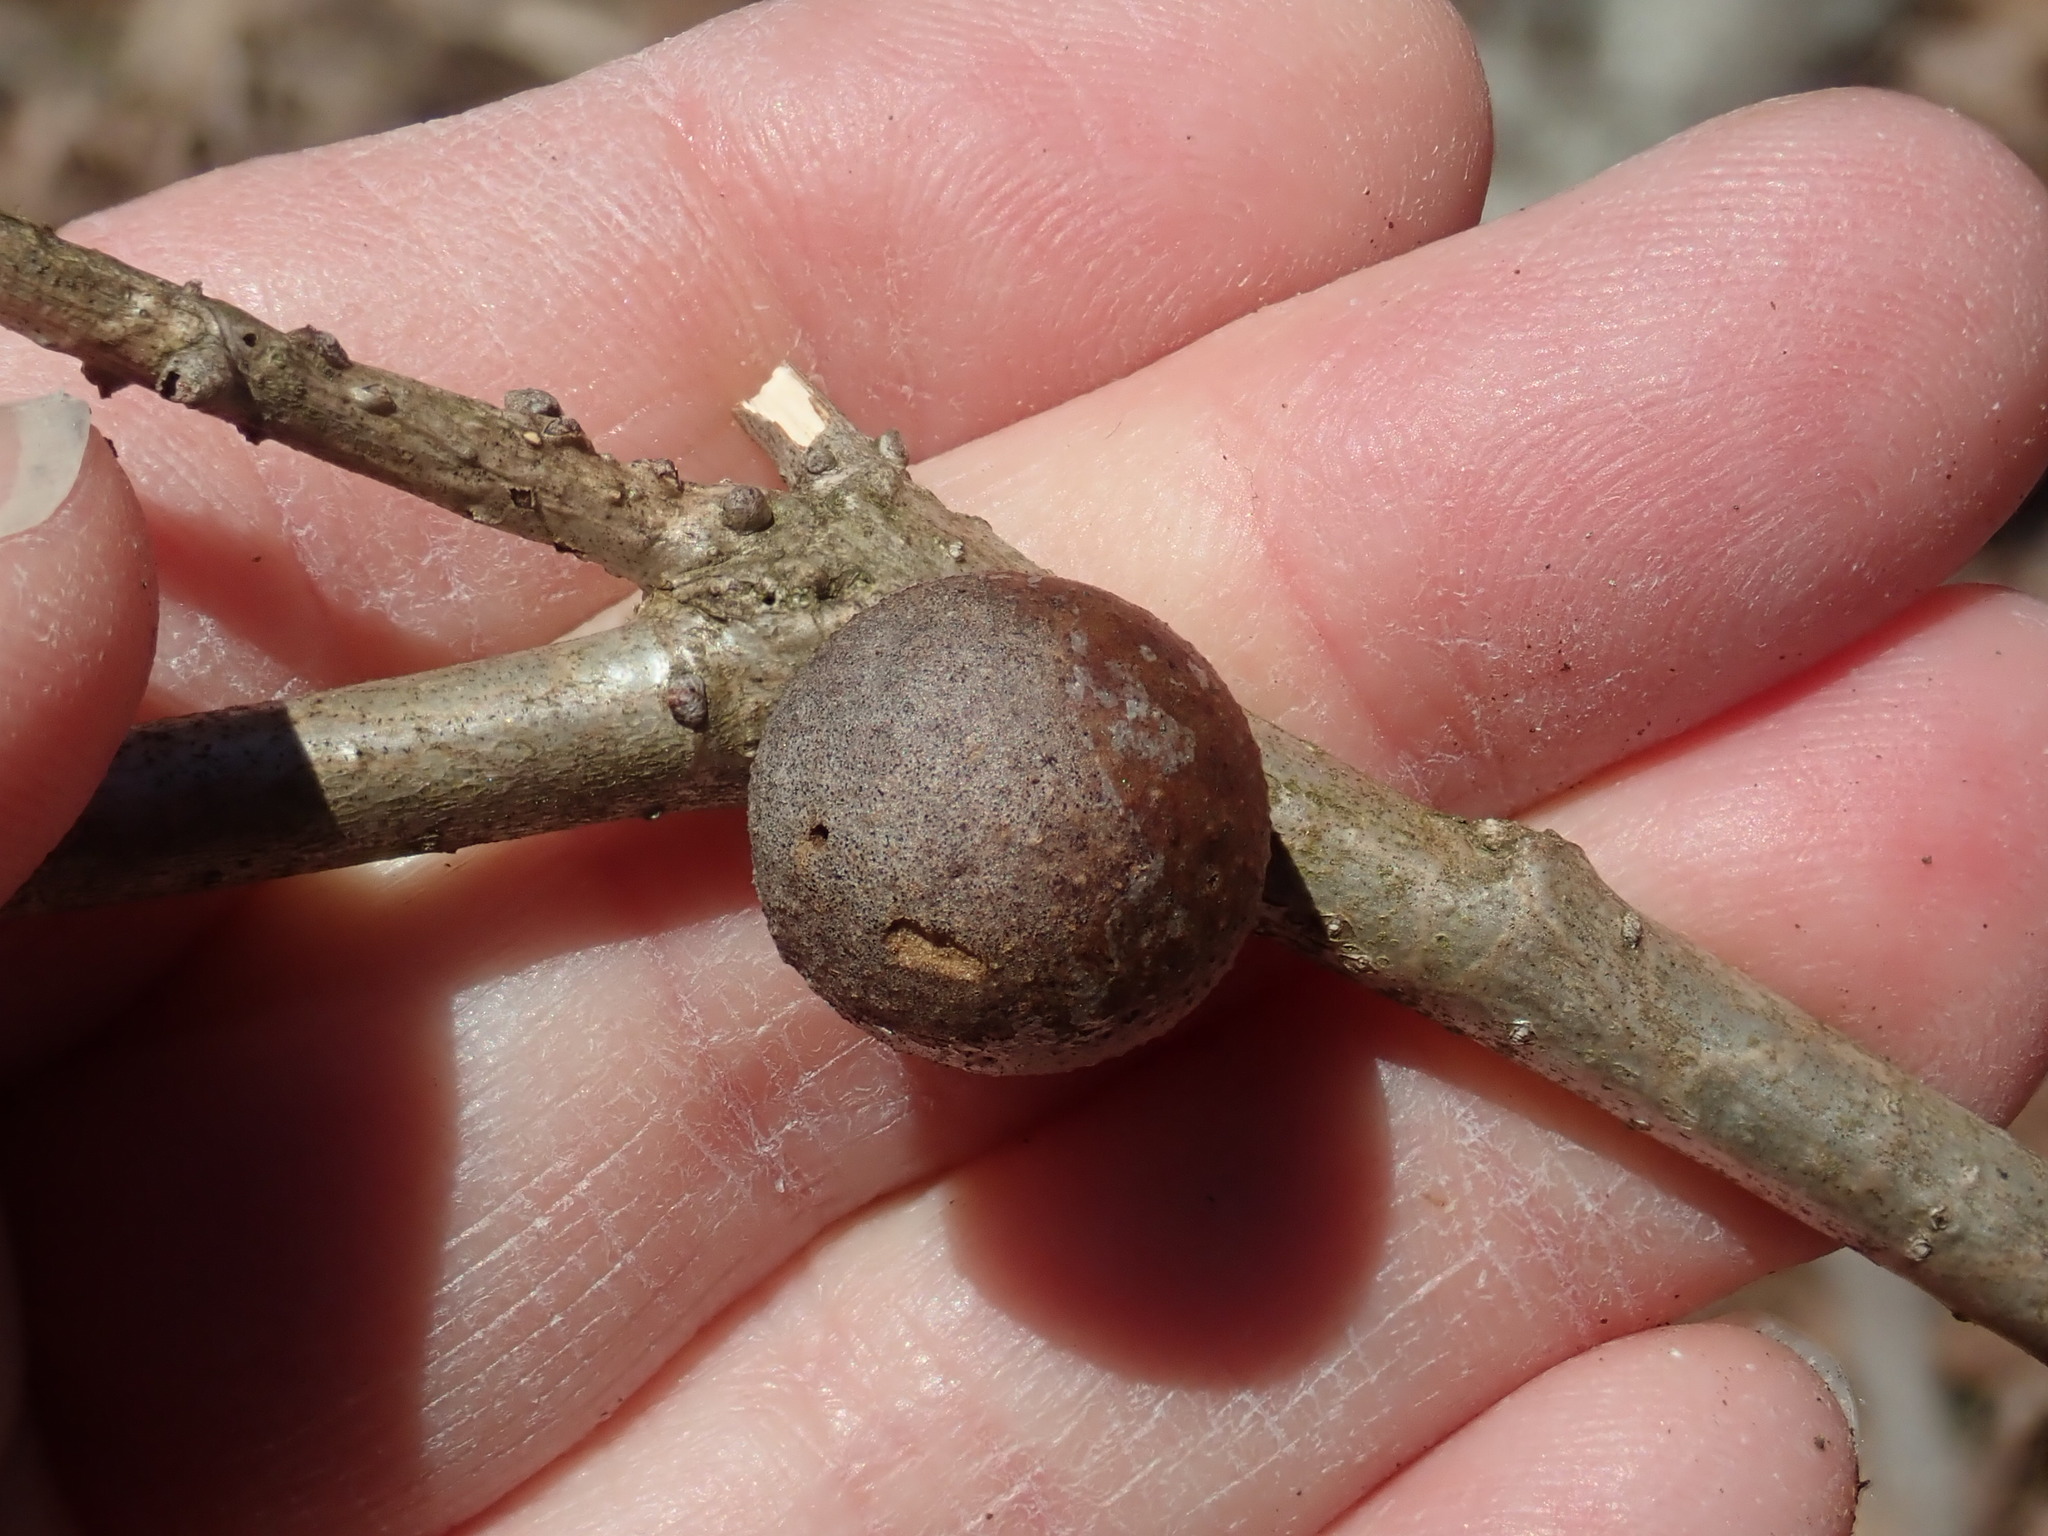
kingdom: Animalia
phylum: Arthropoda
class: Insecta
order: Hymenoptera
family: Cynipidae
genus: Disholcaspis
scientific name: Disholcaspis quercusglobulus
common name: Round bullet gall wasp
